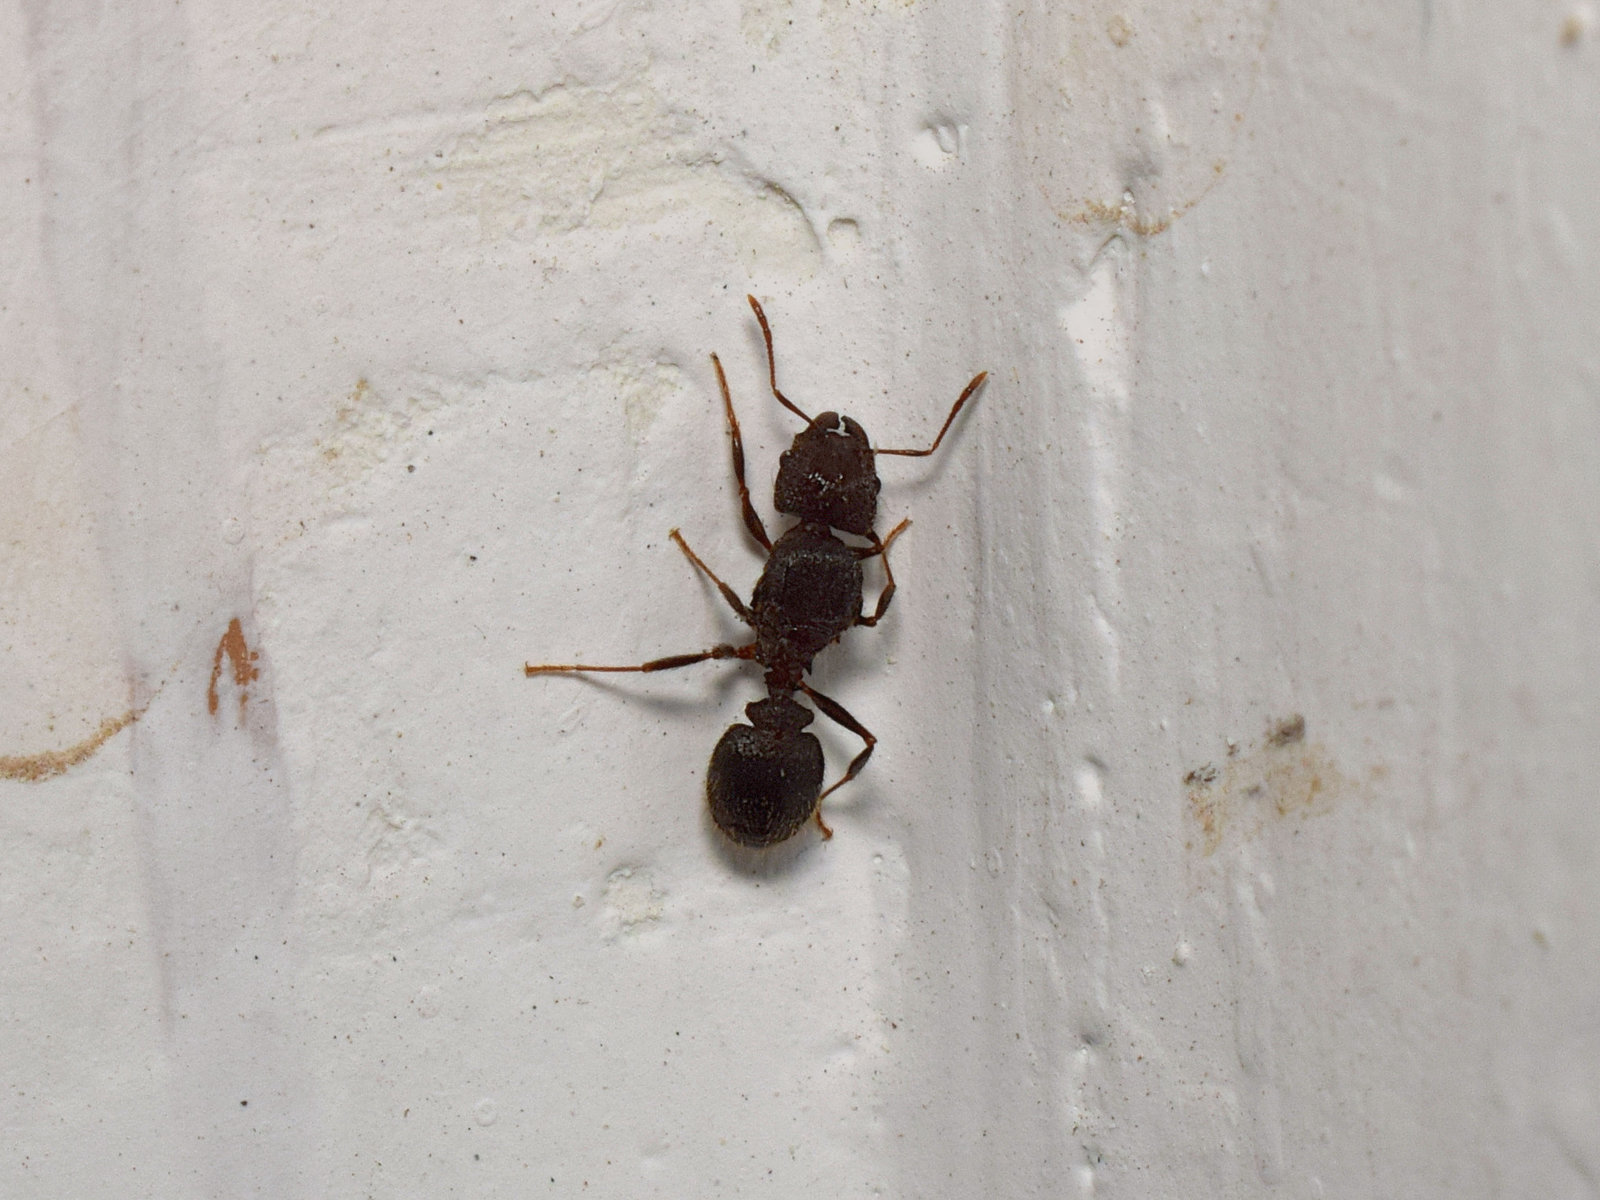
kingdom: Animalia
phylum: Arthropoda
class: Insecta
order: Hymenoptera
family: Formicidae
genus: Pheidole
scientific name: Pheidole spathifera
